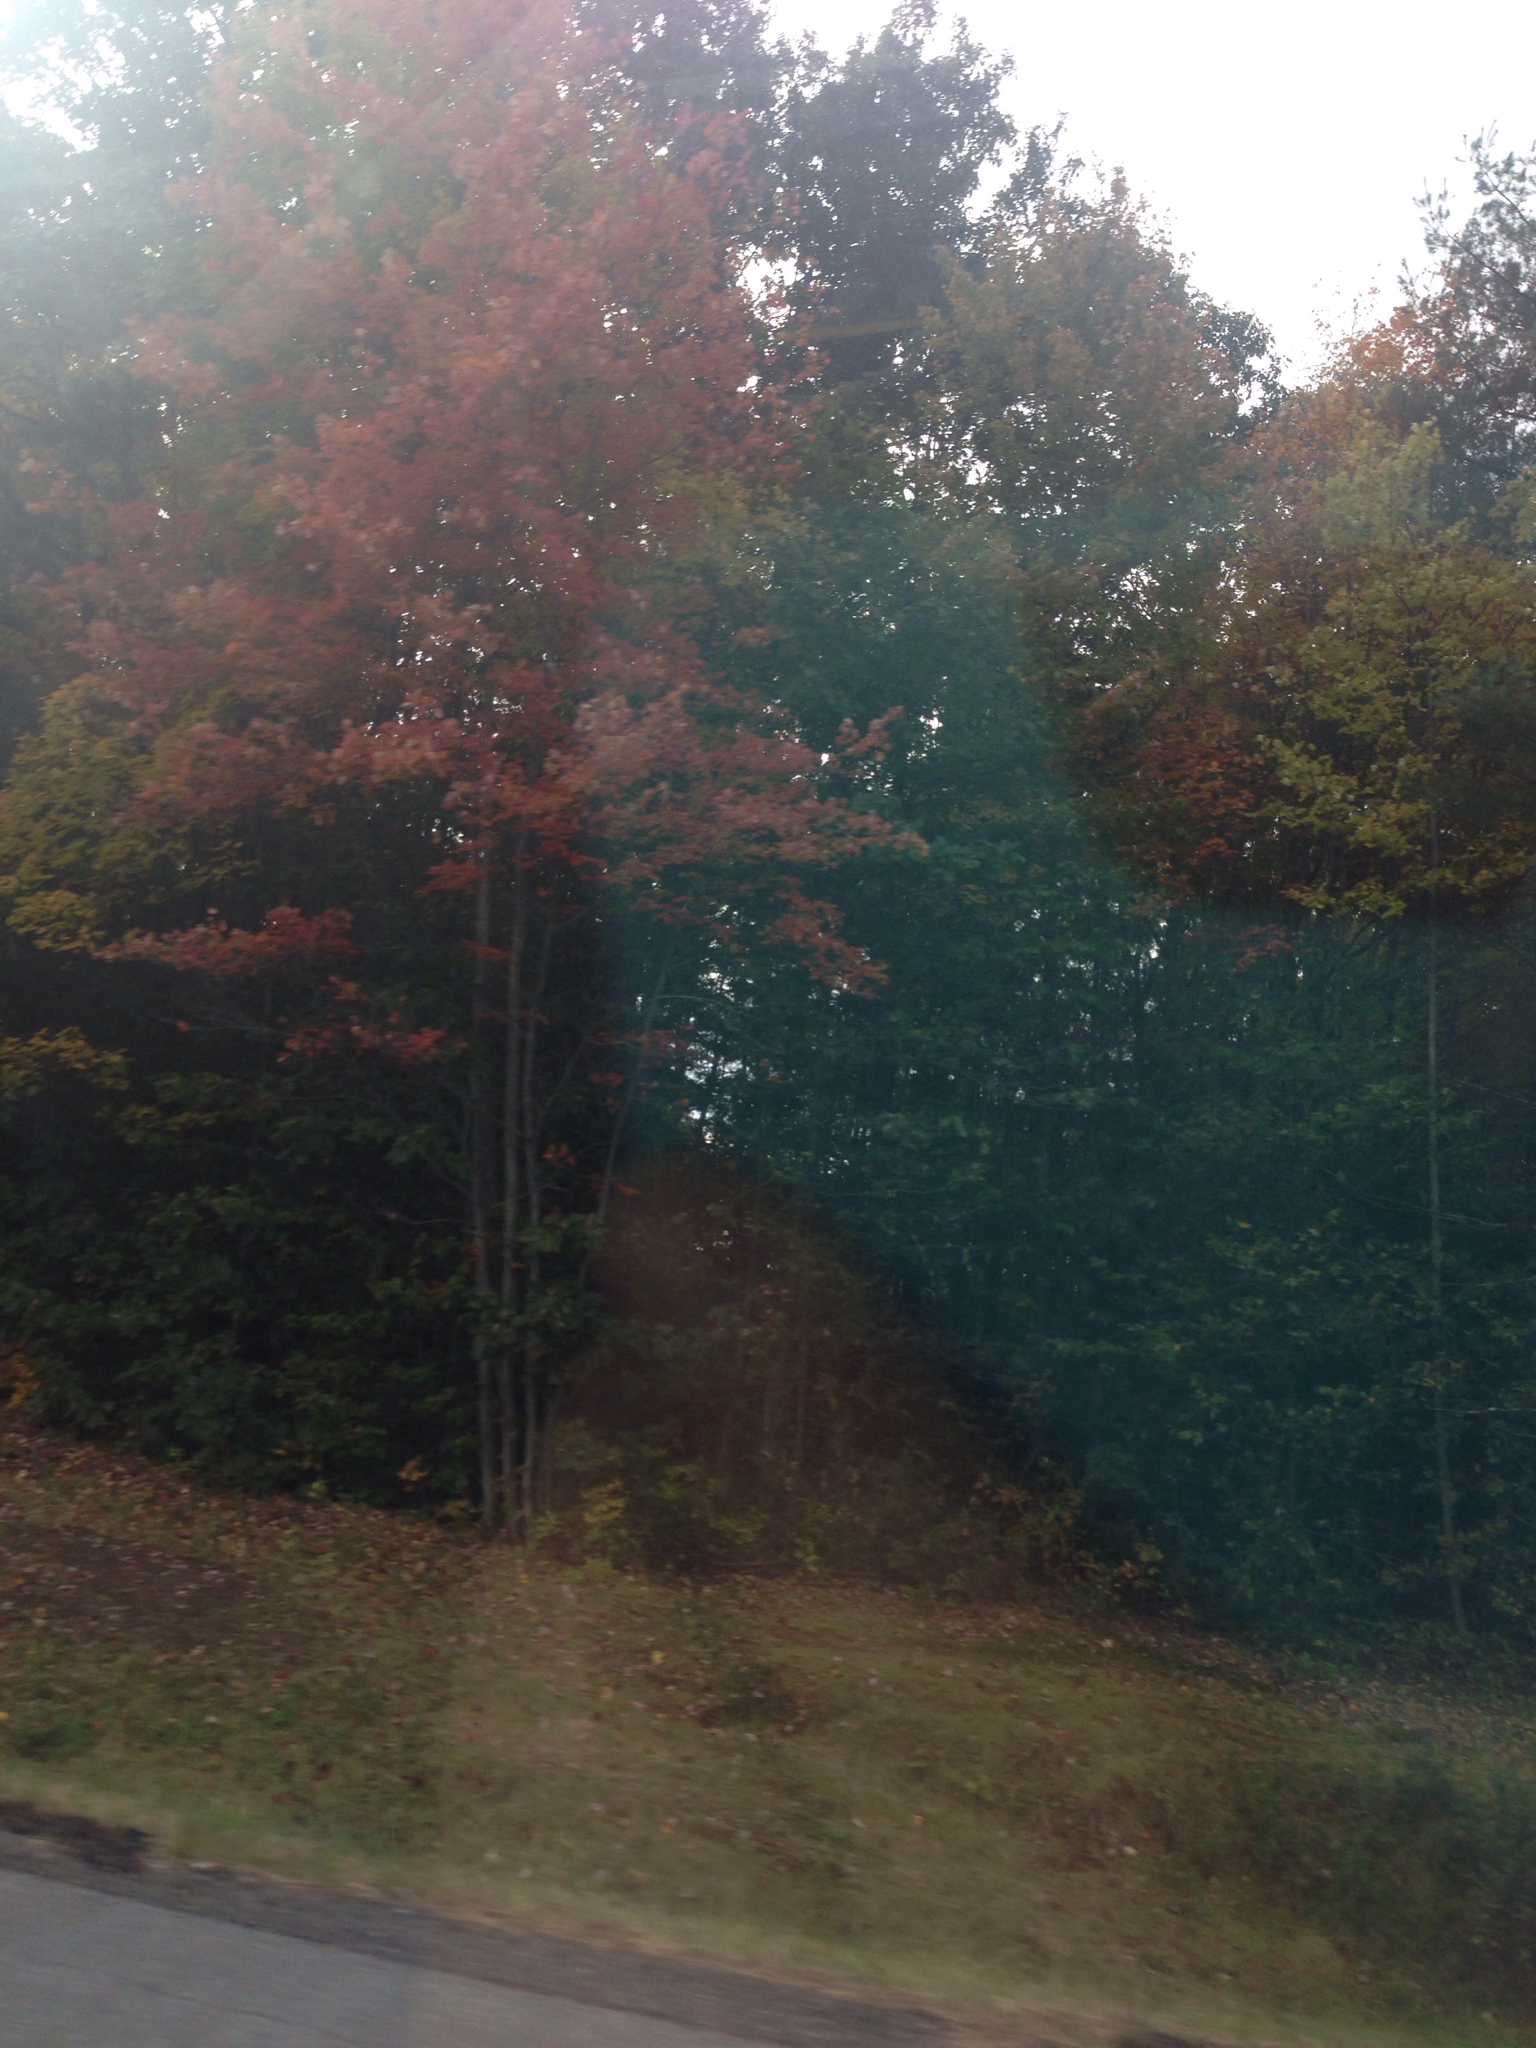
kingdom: Plantae
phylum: Tracheophyta
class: Magnoliopsida
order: Sapindales
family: Sapindaceae
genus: Acer
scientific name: Acer rubrum
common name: Red maple
